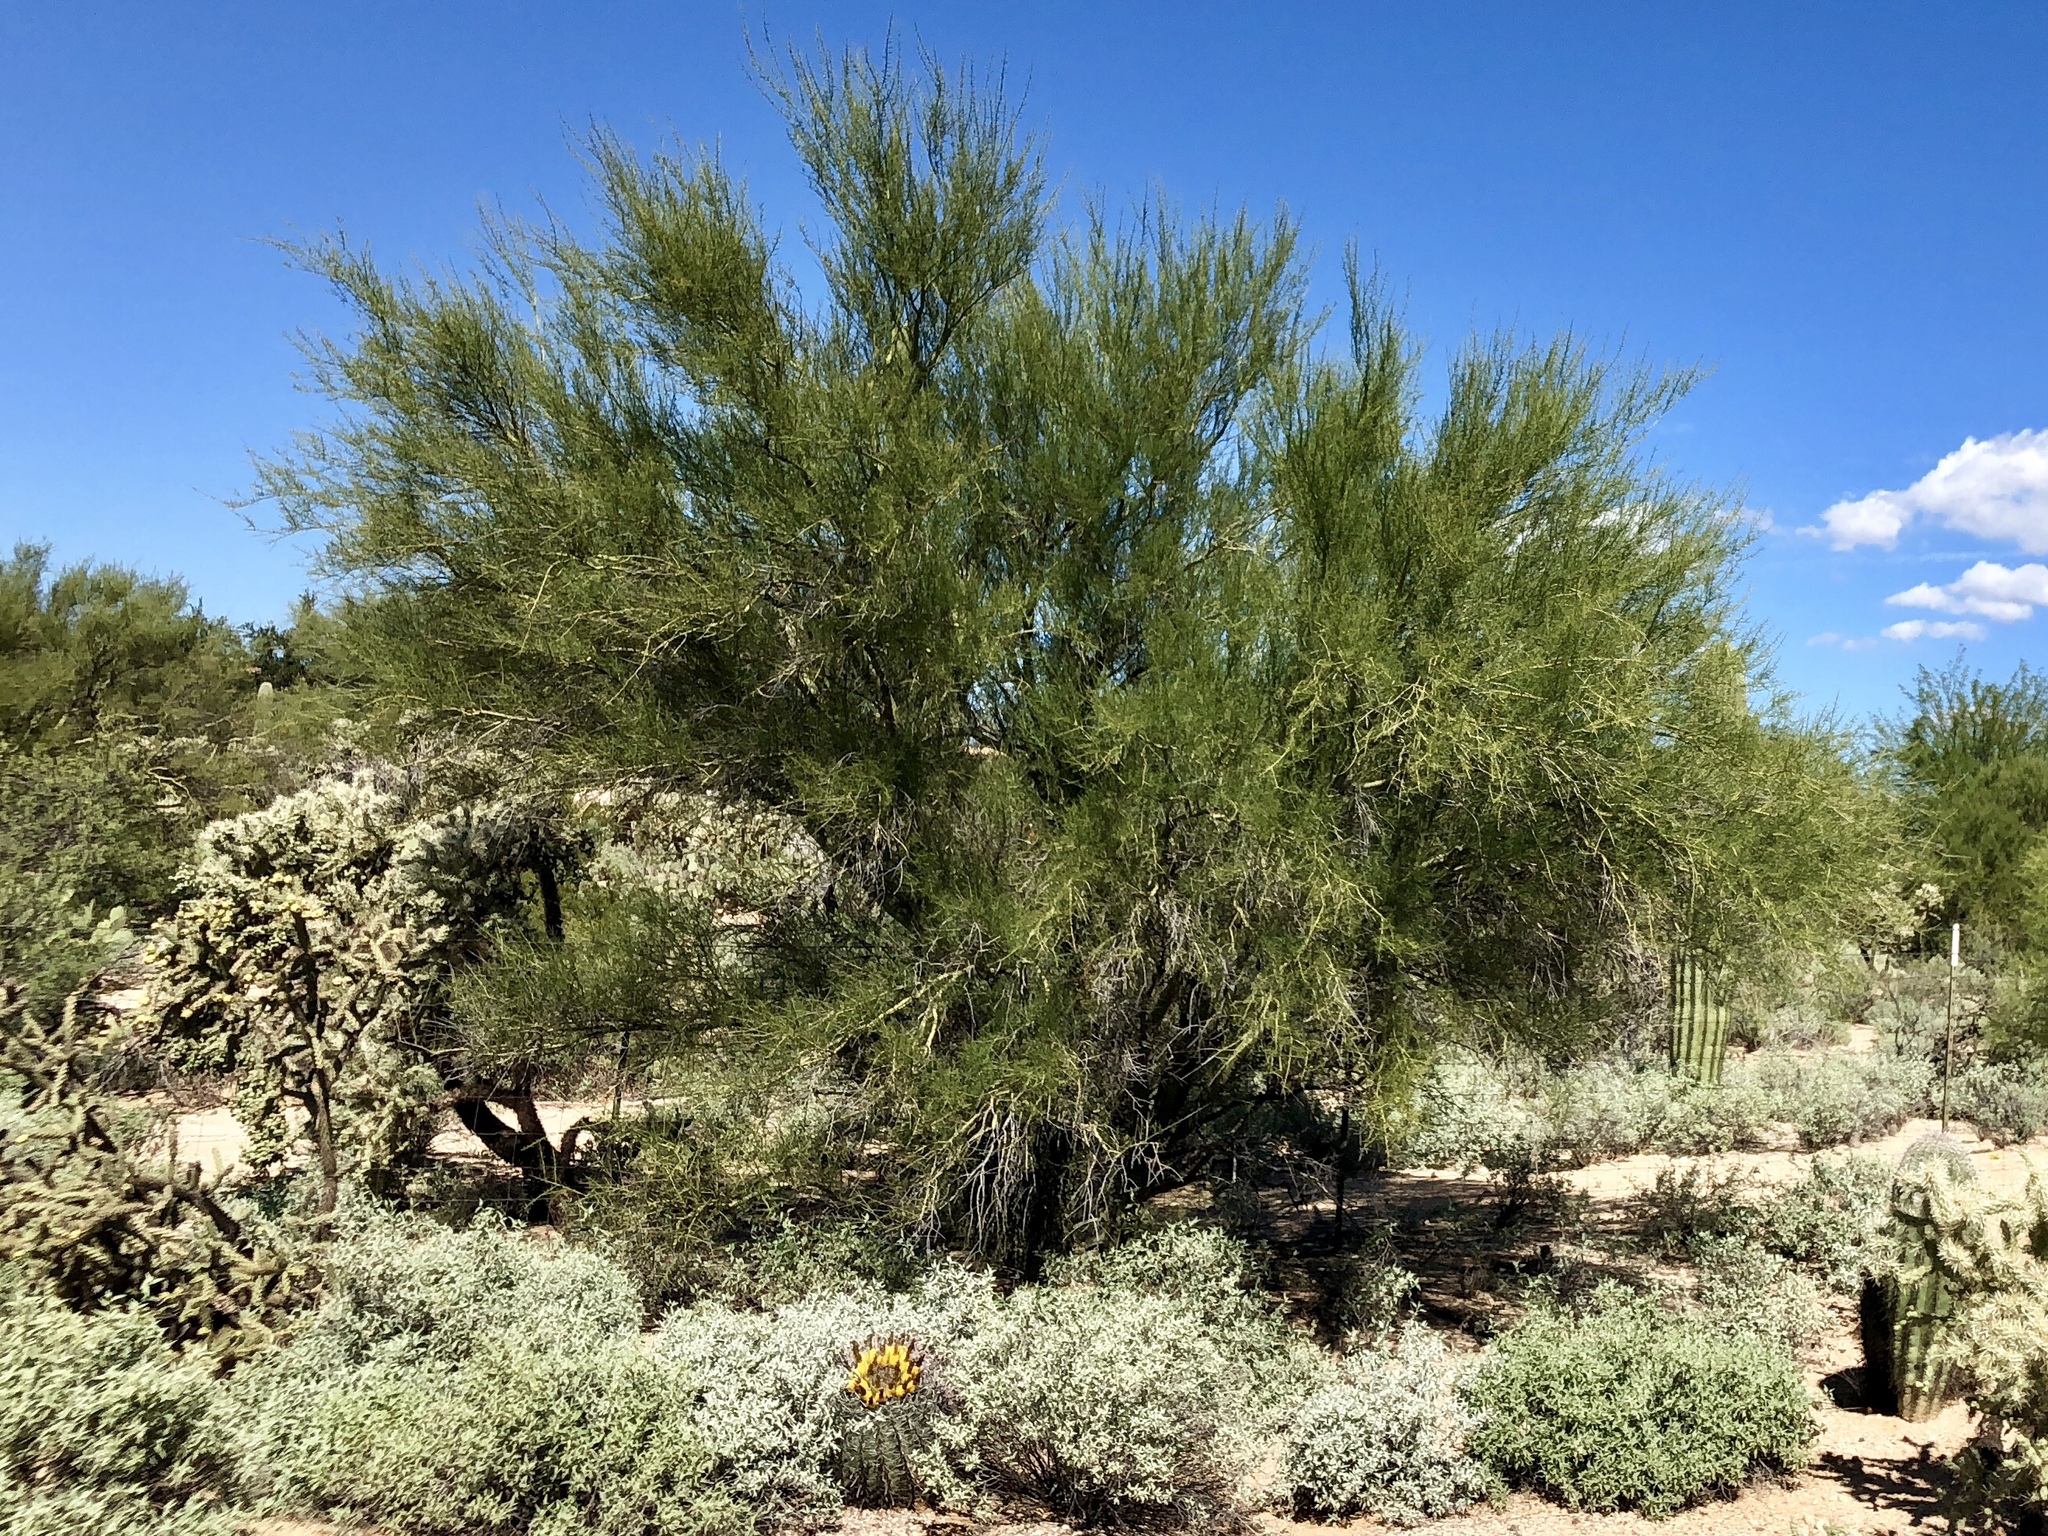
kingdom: Plantae
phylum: Tracheophyta
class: Magnoliopsida
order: Fabales
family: Fabaceae
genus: Parkinsonia
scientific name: Parkinsonia microphylla
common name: Yellow paloverde
